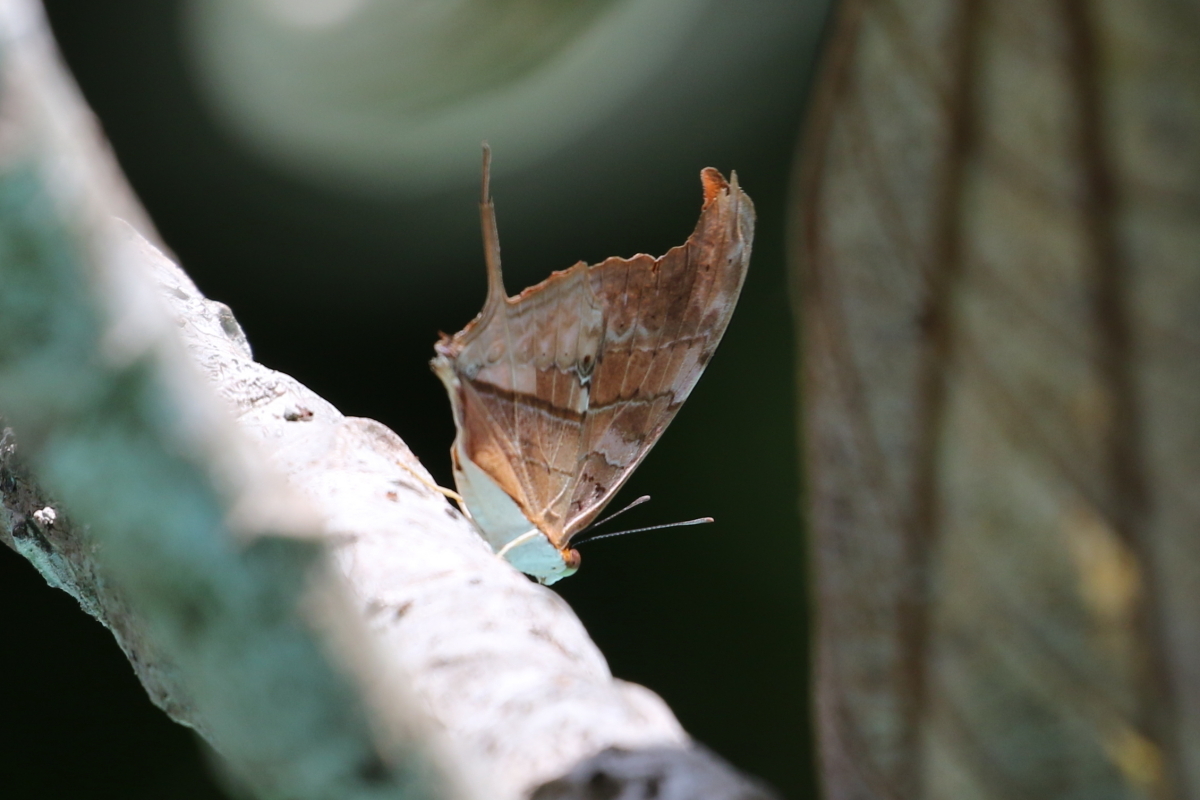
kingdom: Animalia
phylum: Arthropoda
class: Insecta
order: Lepidoptera
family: Nymphalidae
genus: Marpesia
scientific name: Marpesia petreus
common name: Red dagger wing
